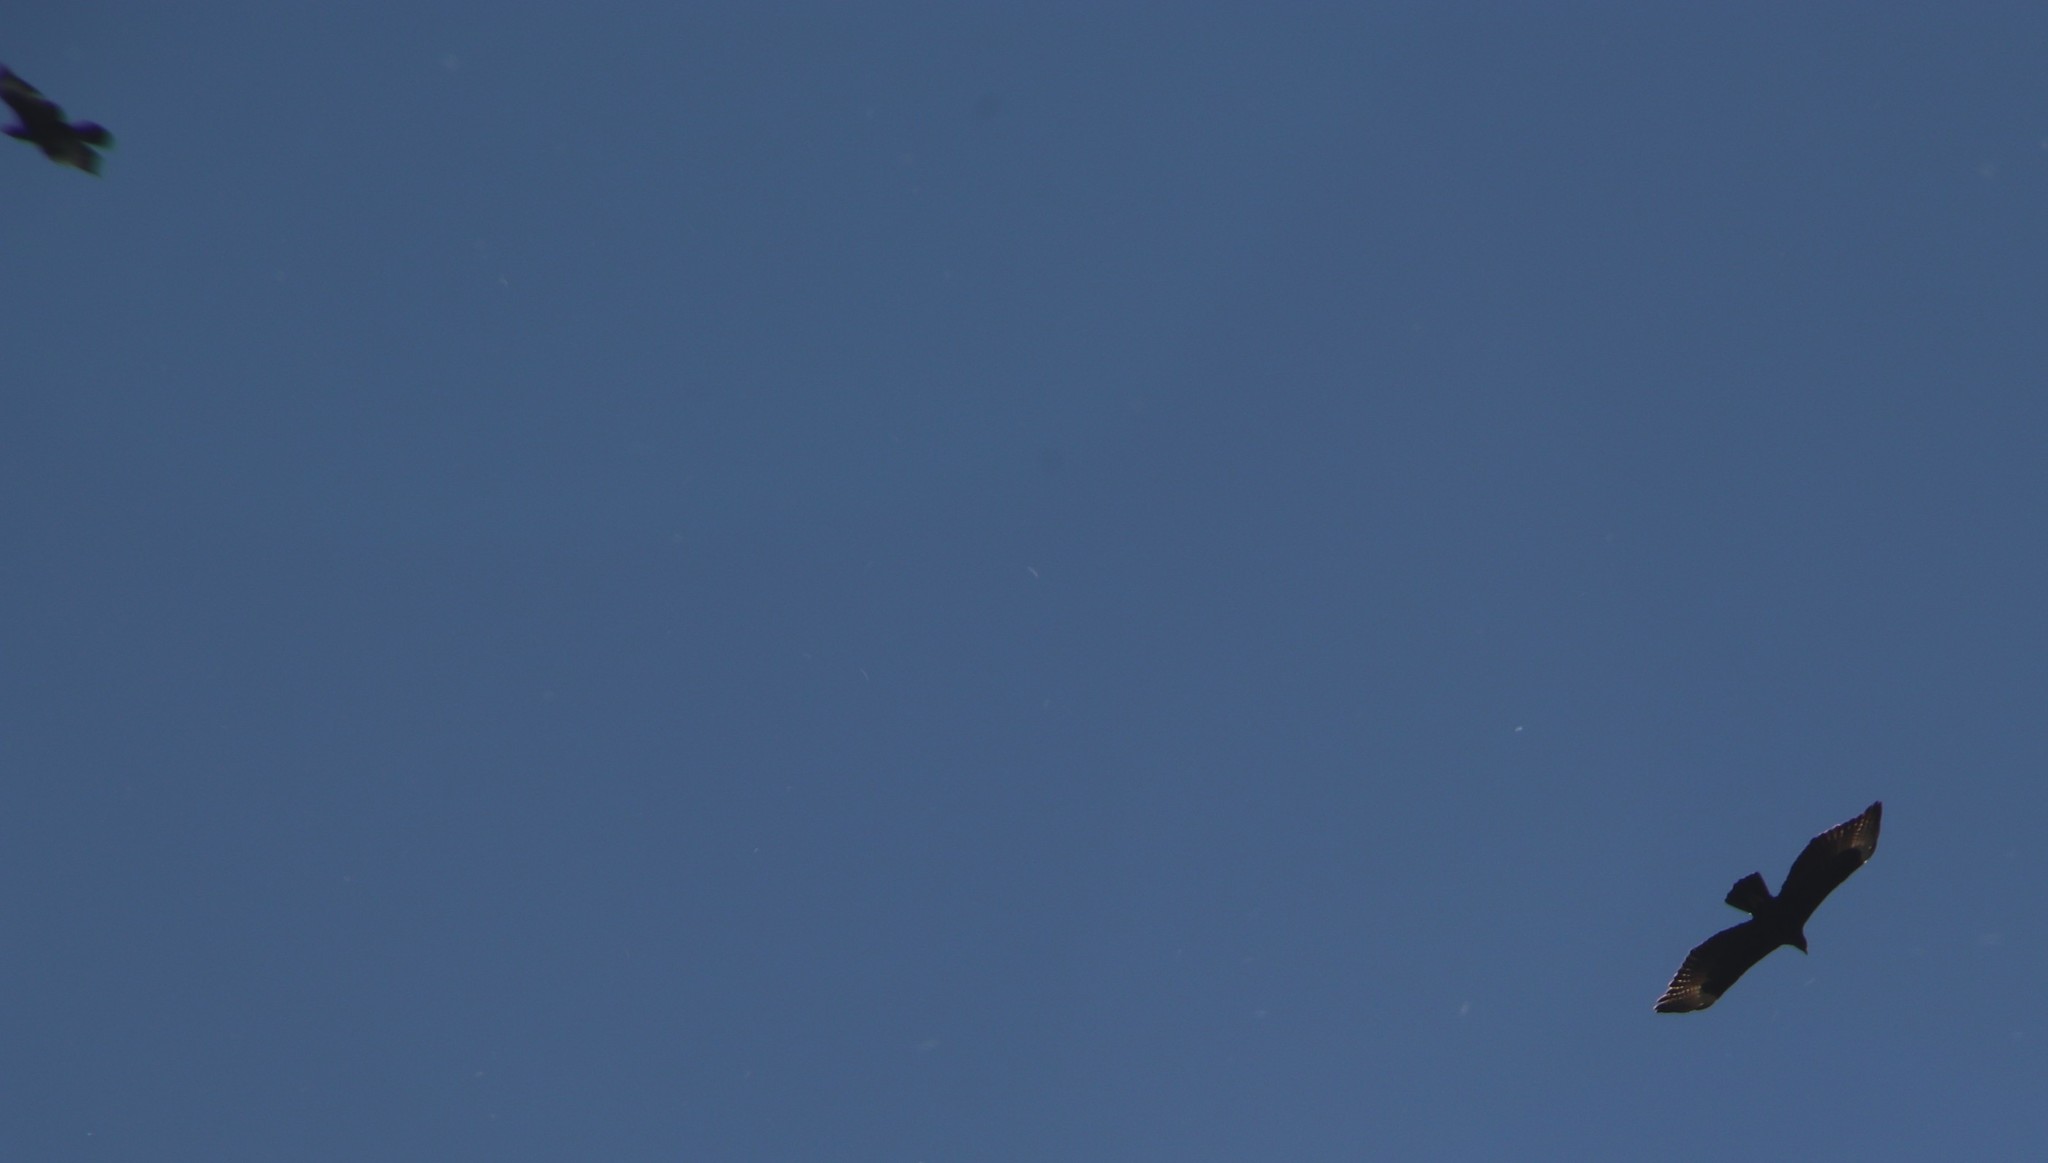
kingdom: Animalia
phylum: Chordata
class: Aves
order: Accipitriformes
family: Accipitridae
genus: Aquila
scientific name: Aquila verreauxii
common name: Verreaux's eagle
